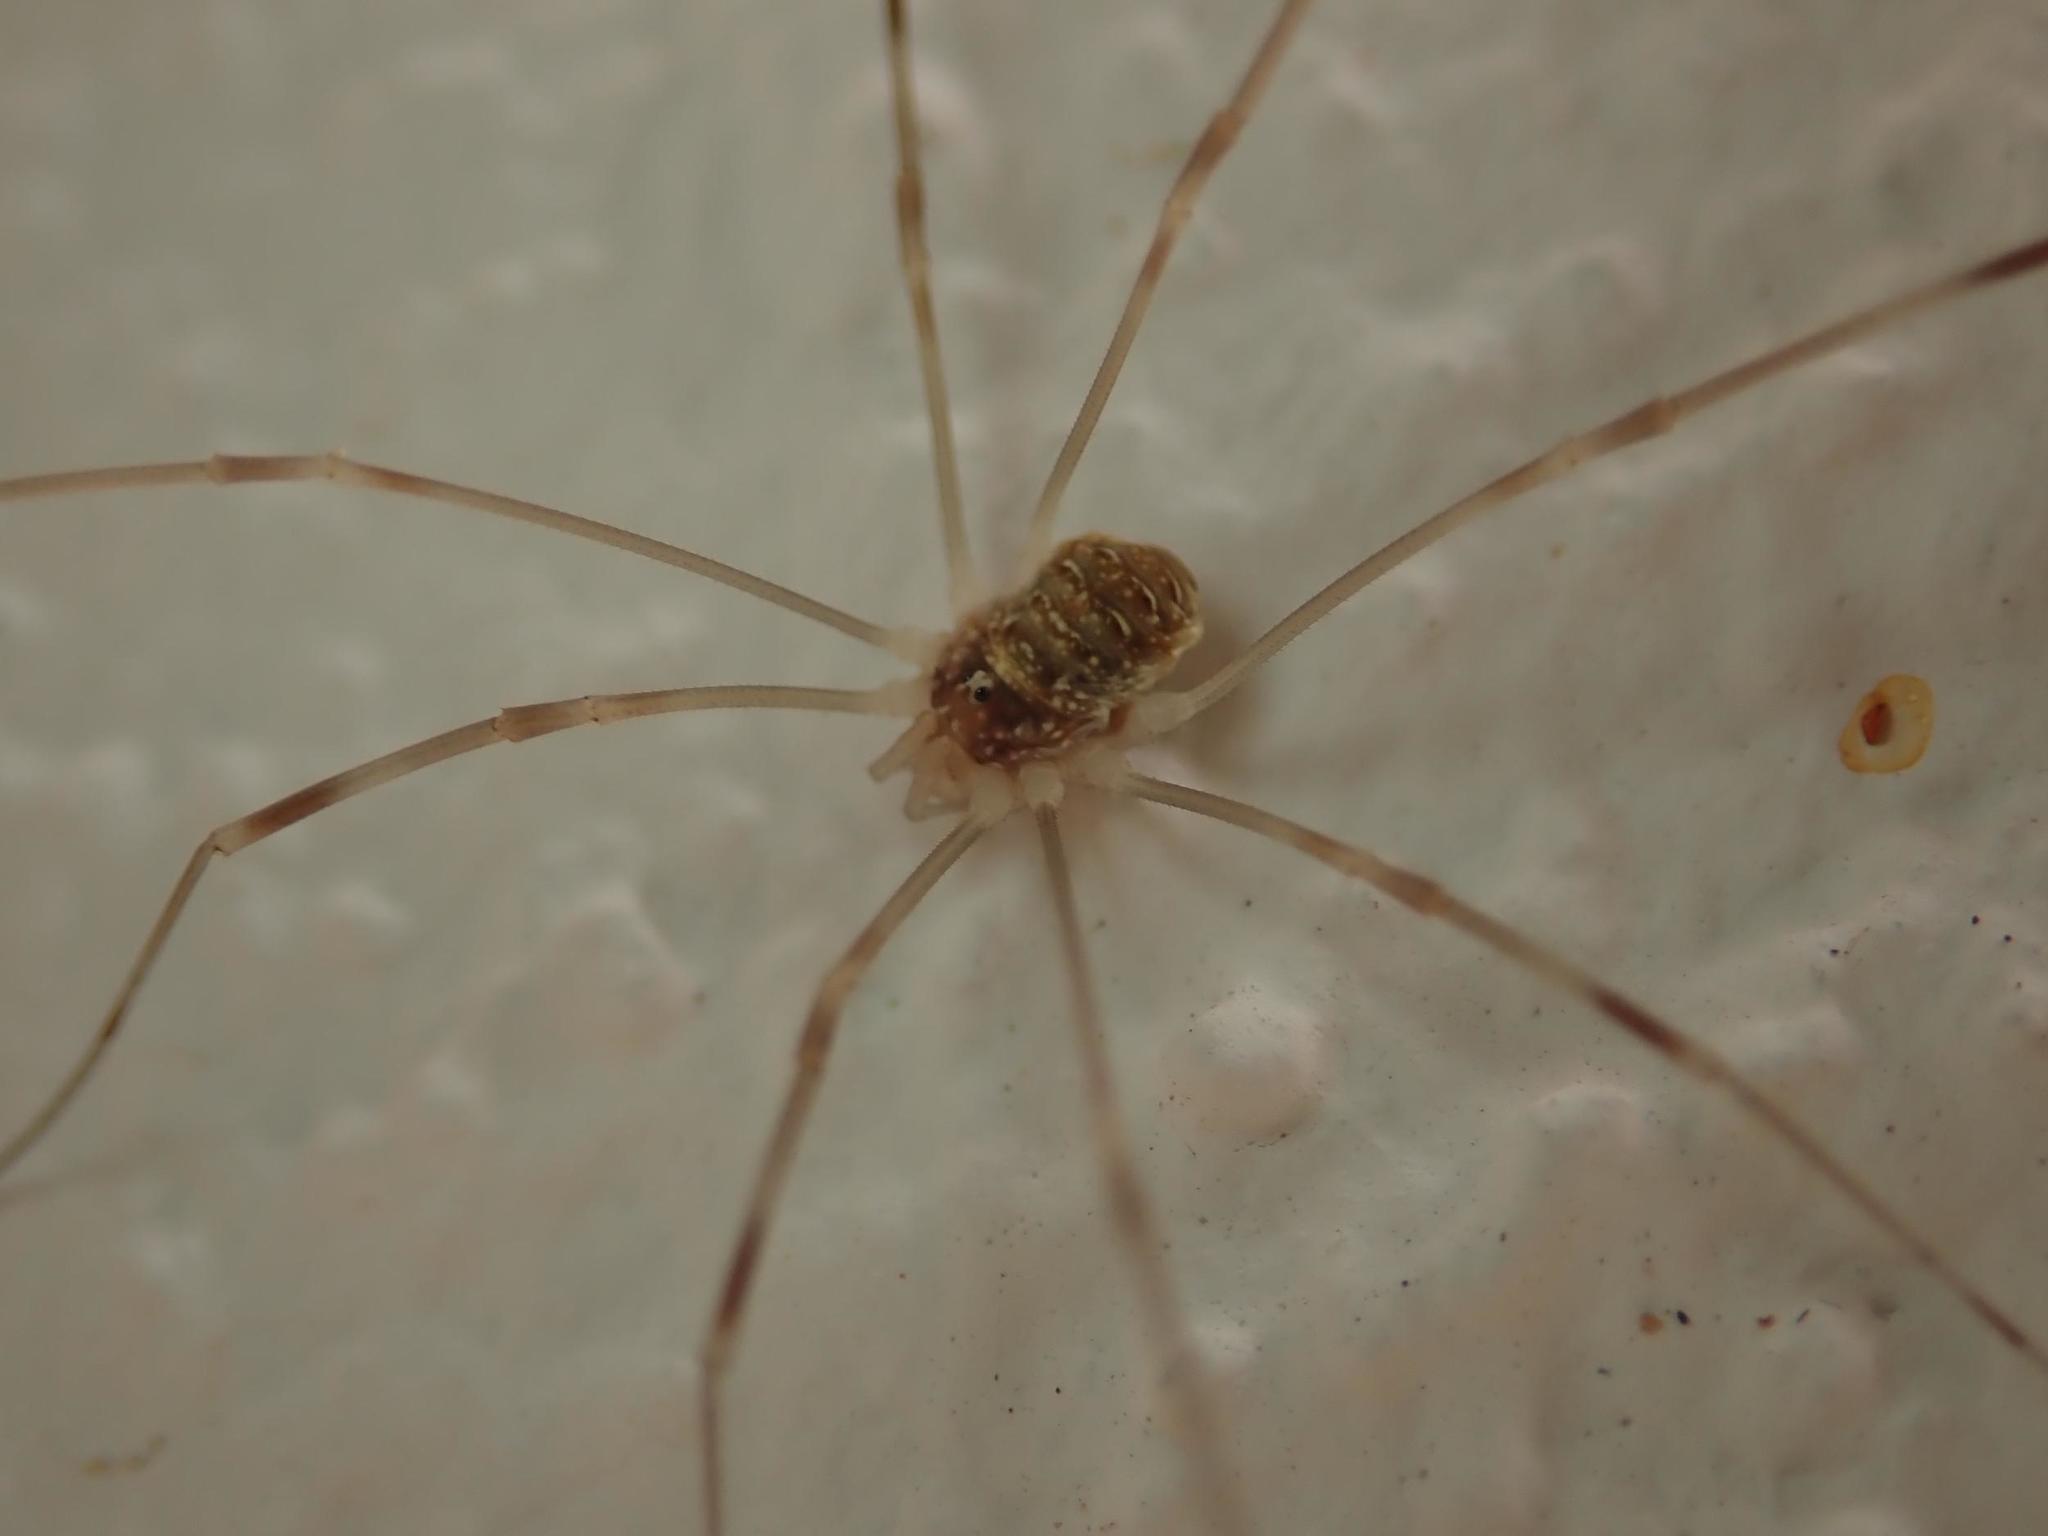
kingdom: Animalia
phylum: Arthropoda
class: Arachnida
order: Opiliones
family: Phalangiidae
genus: Opilio
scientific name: Opilio canestrinii
